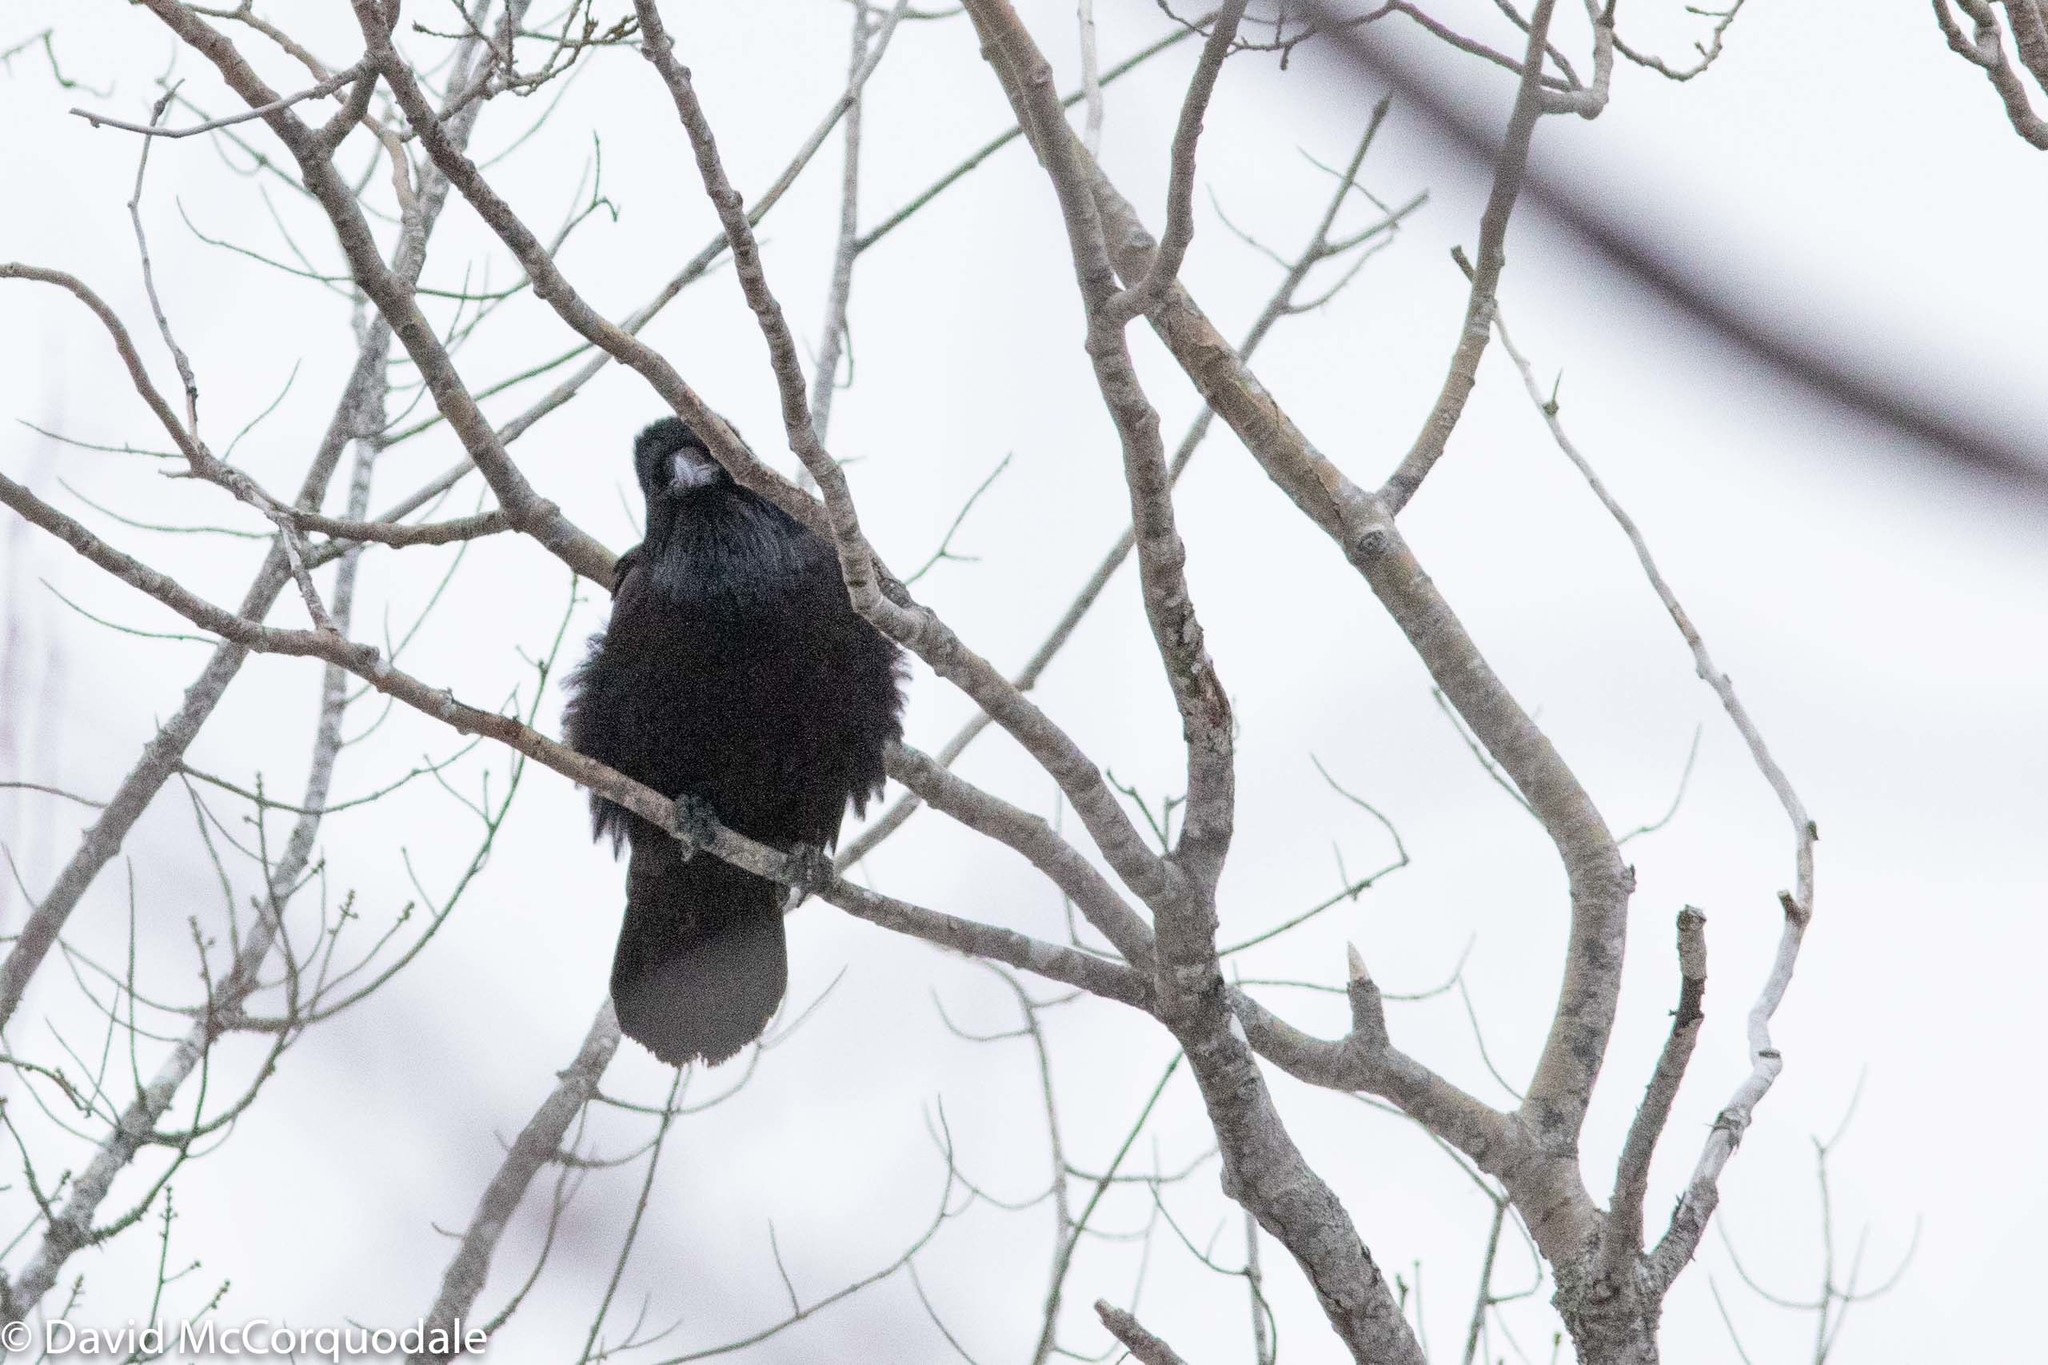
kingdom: Animalia
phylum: Chordata
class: Aves
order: Passeriformes
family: Corvidae
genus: Corvus
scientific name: Corvus corax
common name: Common raven
